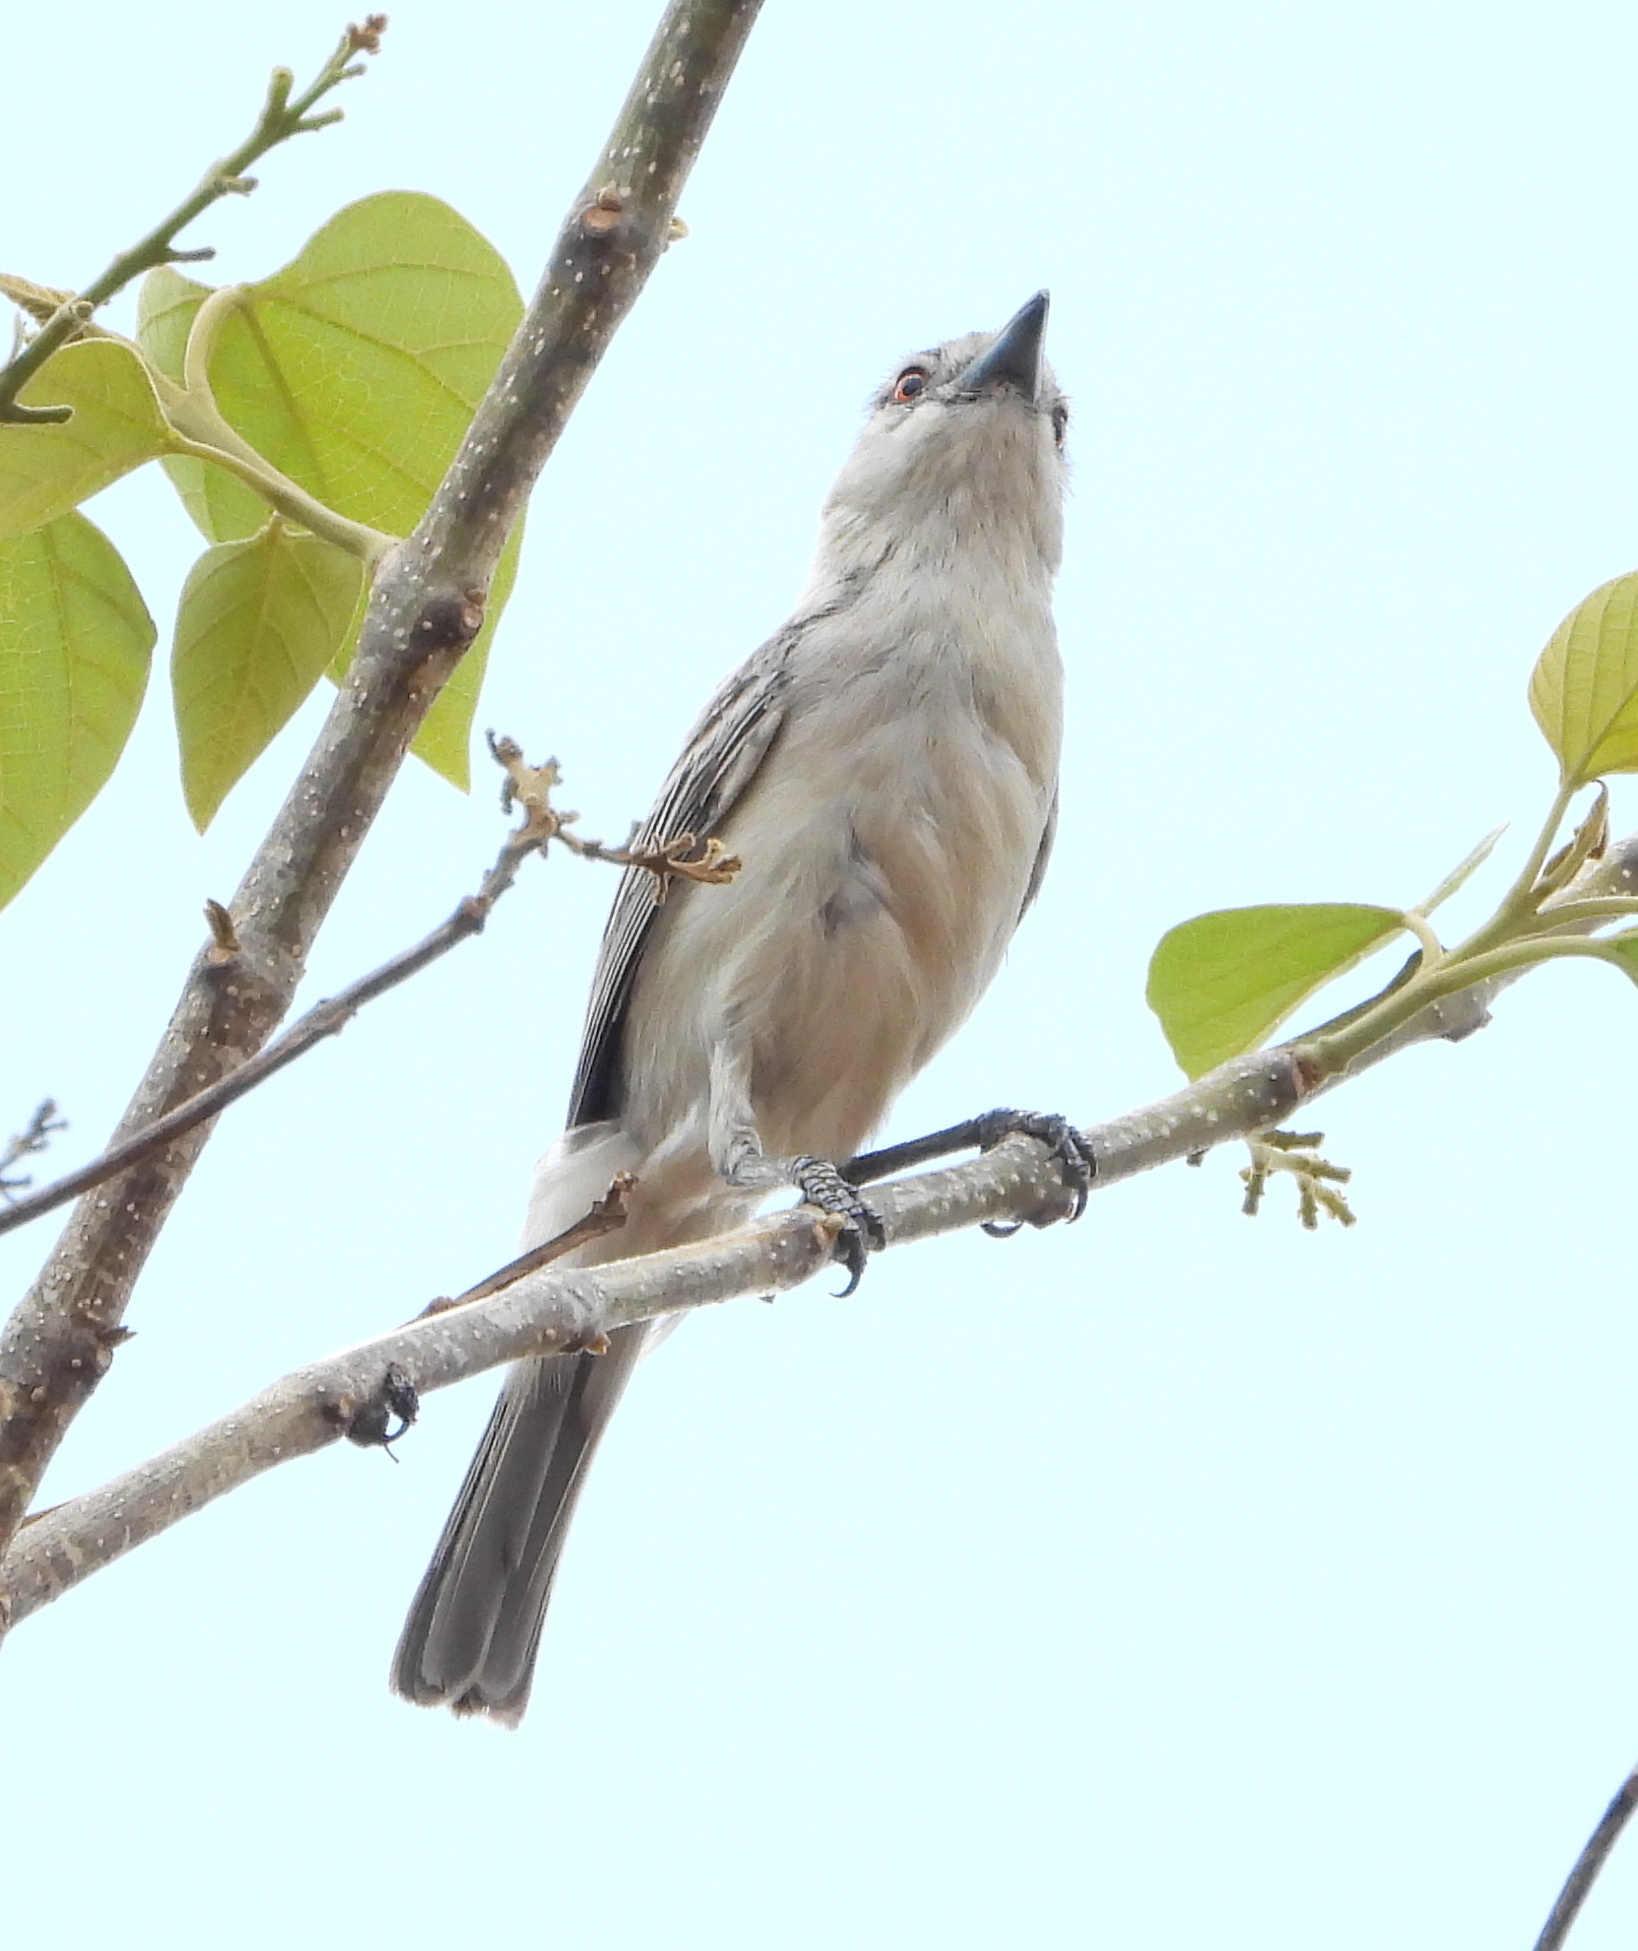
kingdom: Animalia
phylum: Chordata
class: Aves
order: Passeriformes
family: Malaconotidae
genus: Dryoscopus
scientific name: Dryoscopus cubla
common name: Black-backed puffback
